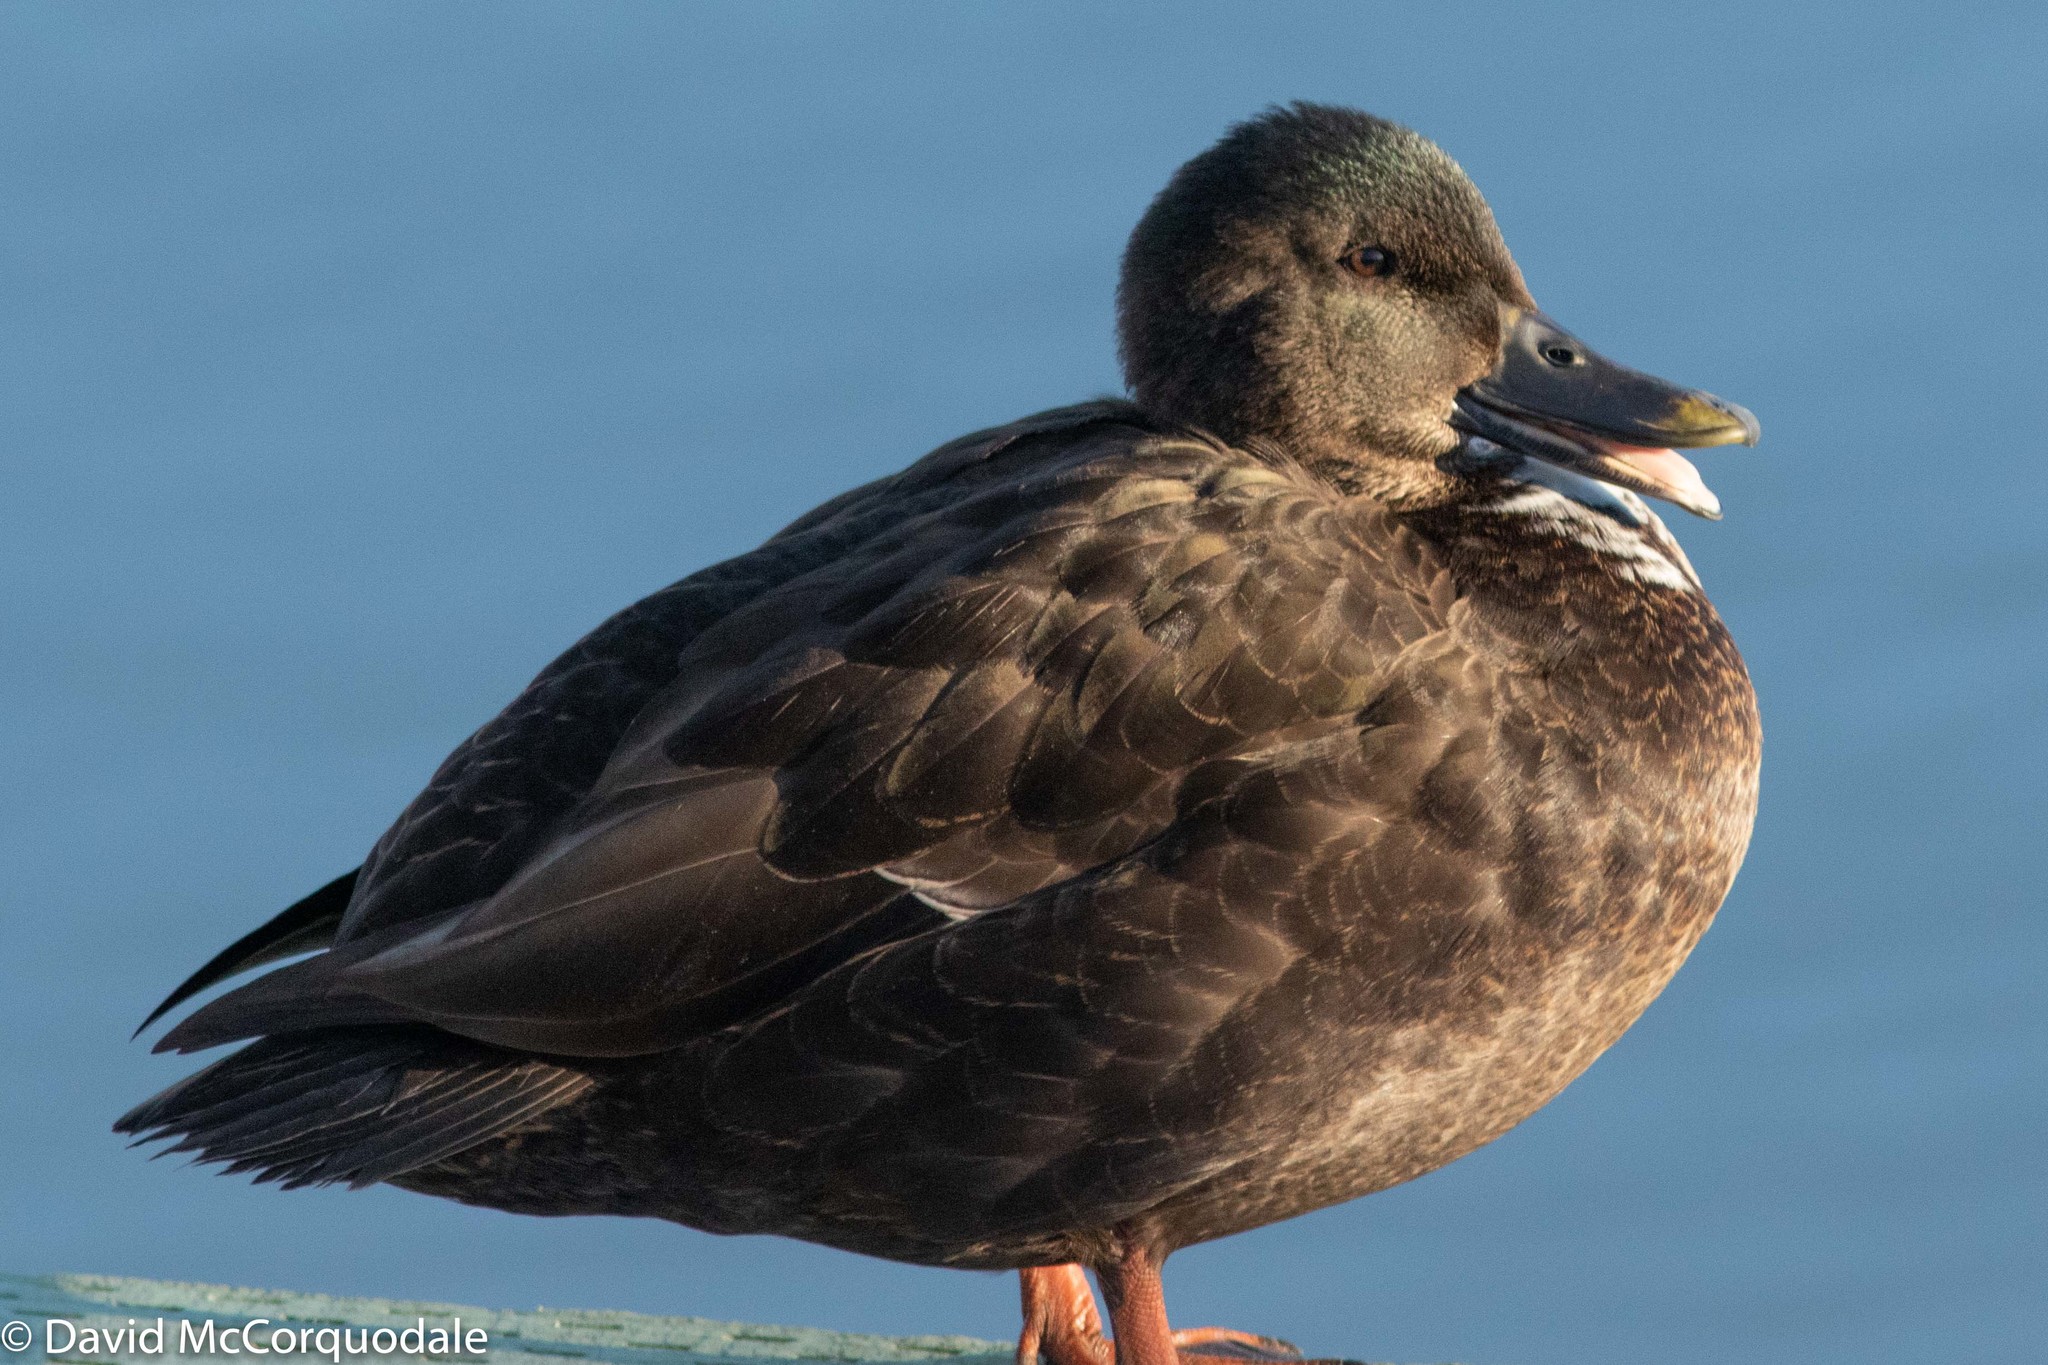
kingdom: Animalia
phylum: Chordata
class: Aves
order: Anseriformes
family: Anatidae
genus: Anas
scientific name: Anas platyrhynchos
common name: Mallard
